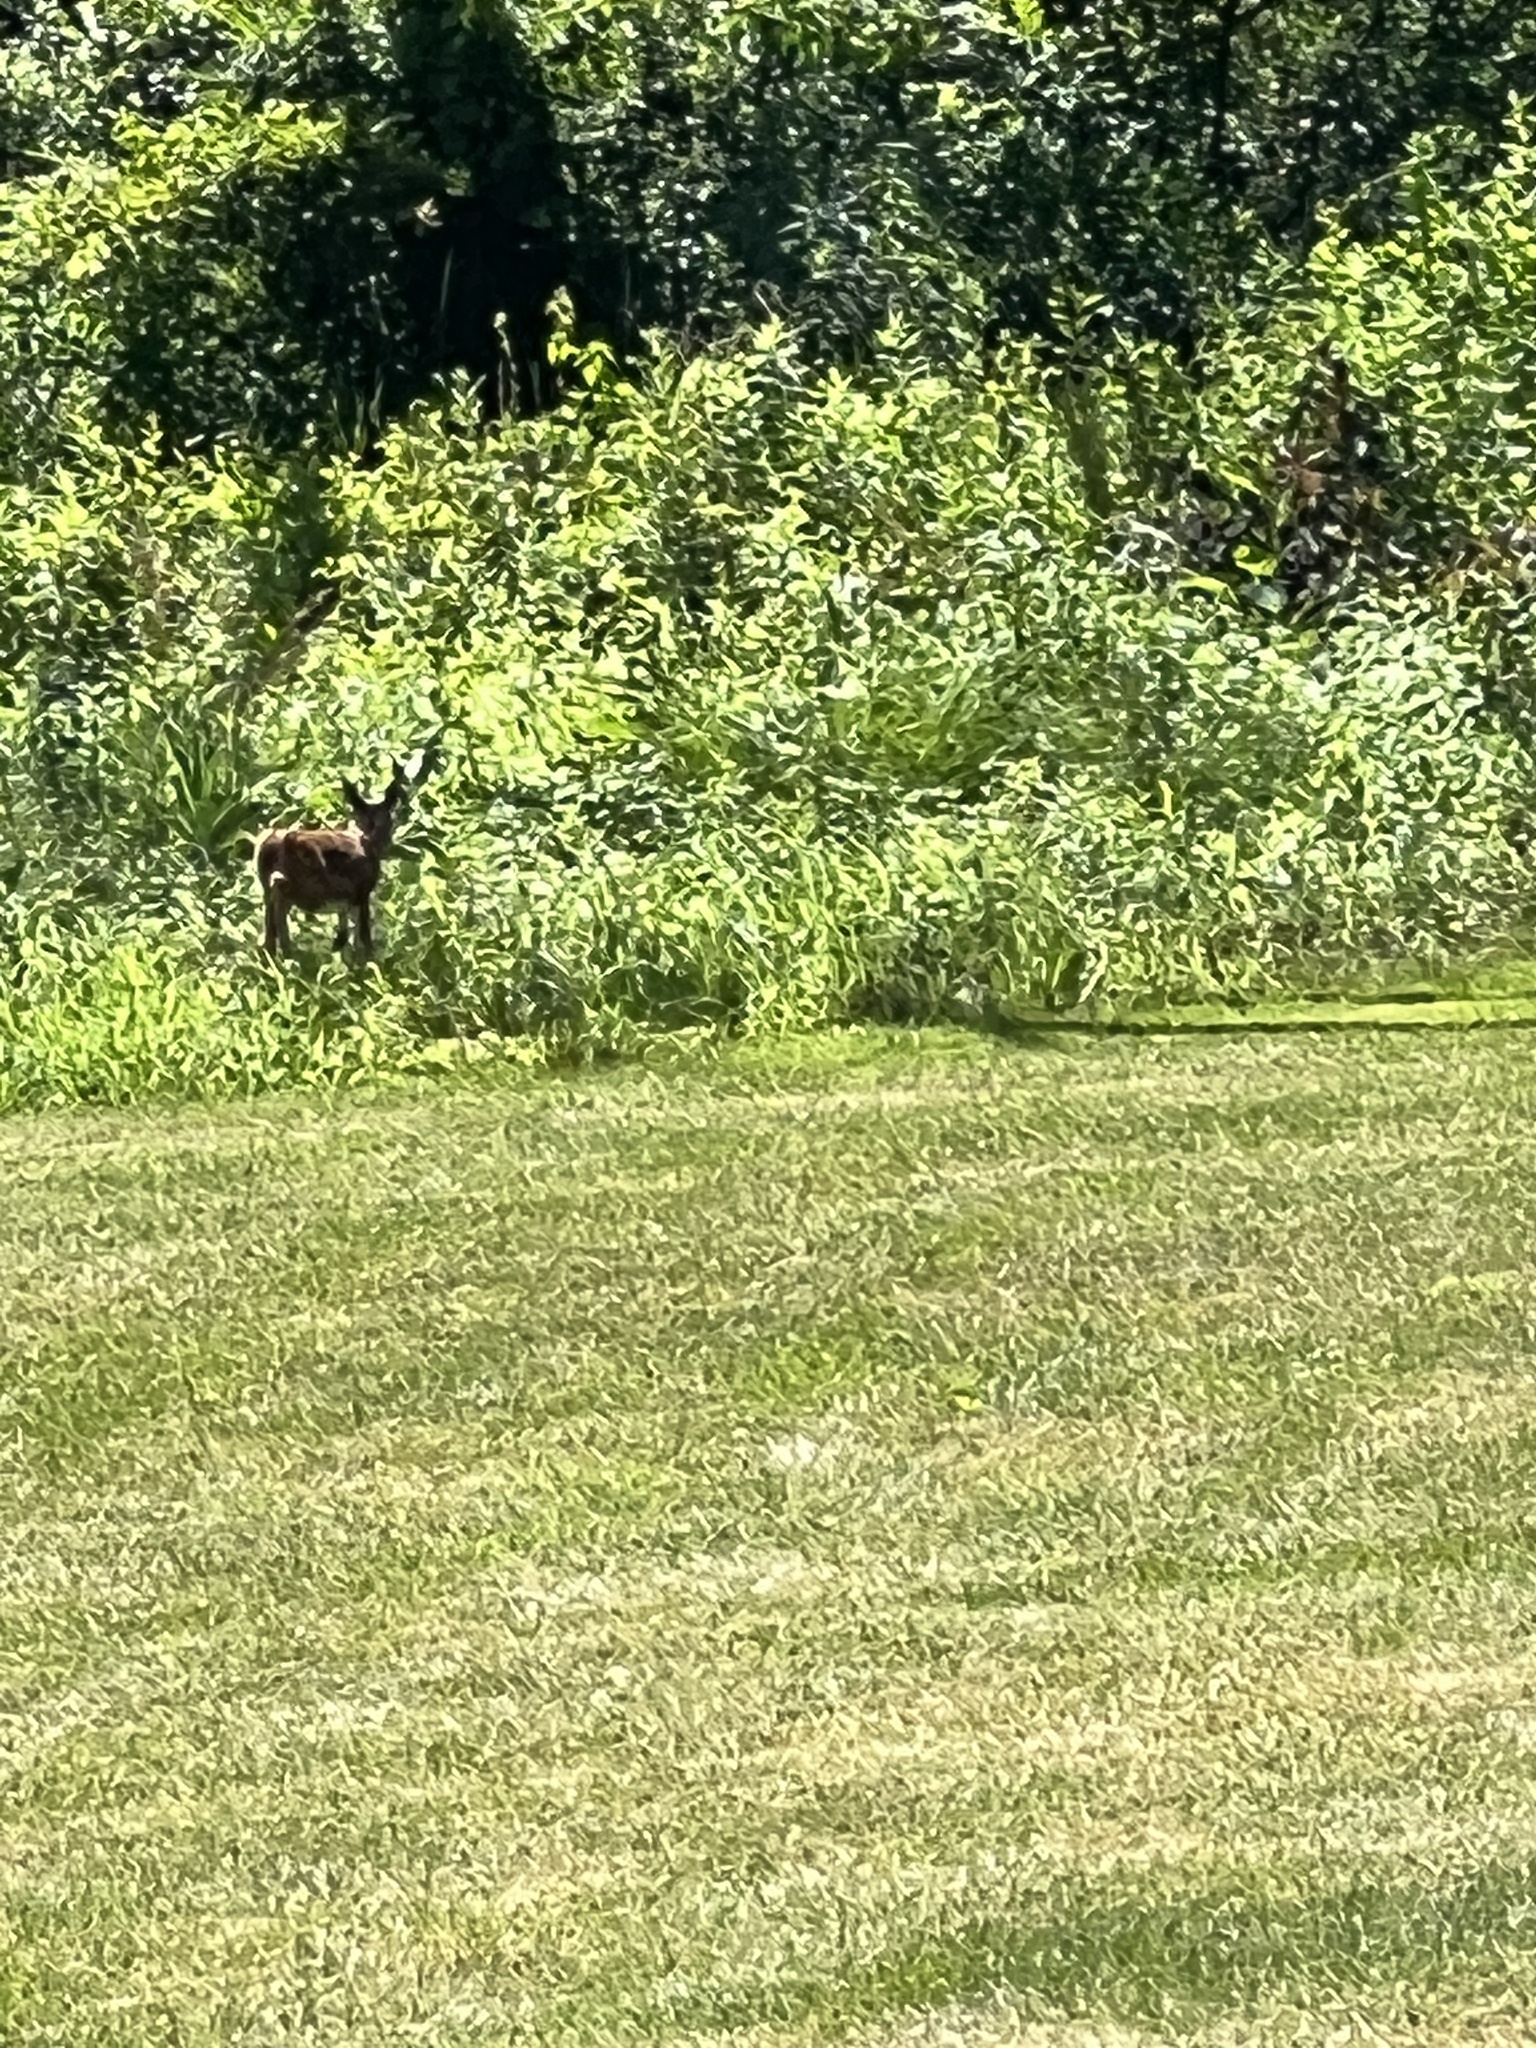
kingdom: Animalia
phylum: Chordata
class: Mammalia
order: Artiodactyla
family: Cervidae
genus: Odocoileus
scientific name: Odocoileus virginianus
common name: White-tailed deer
